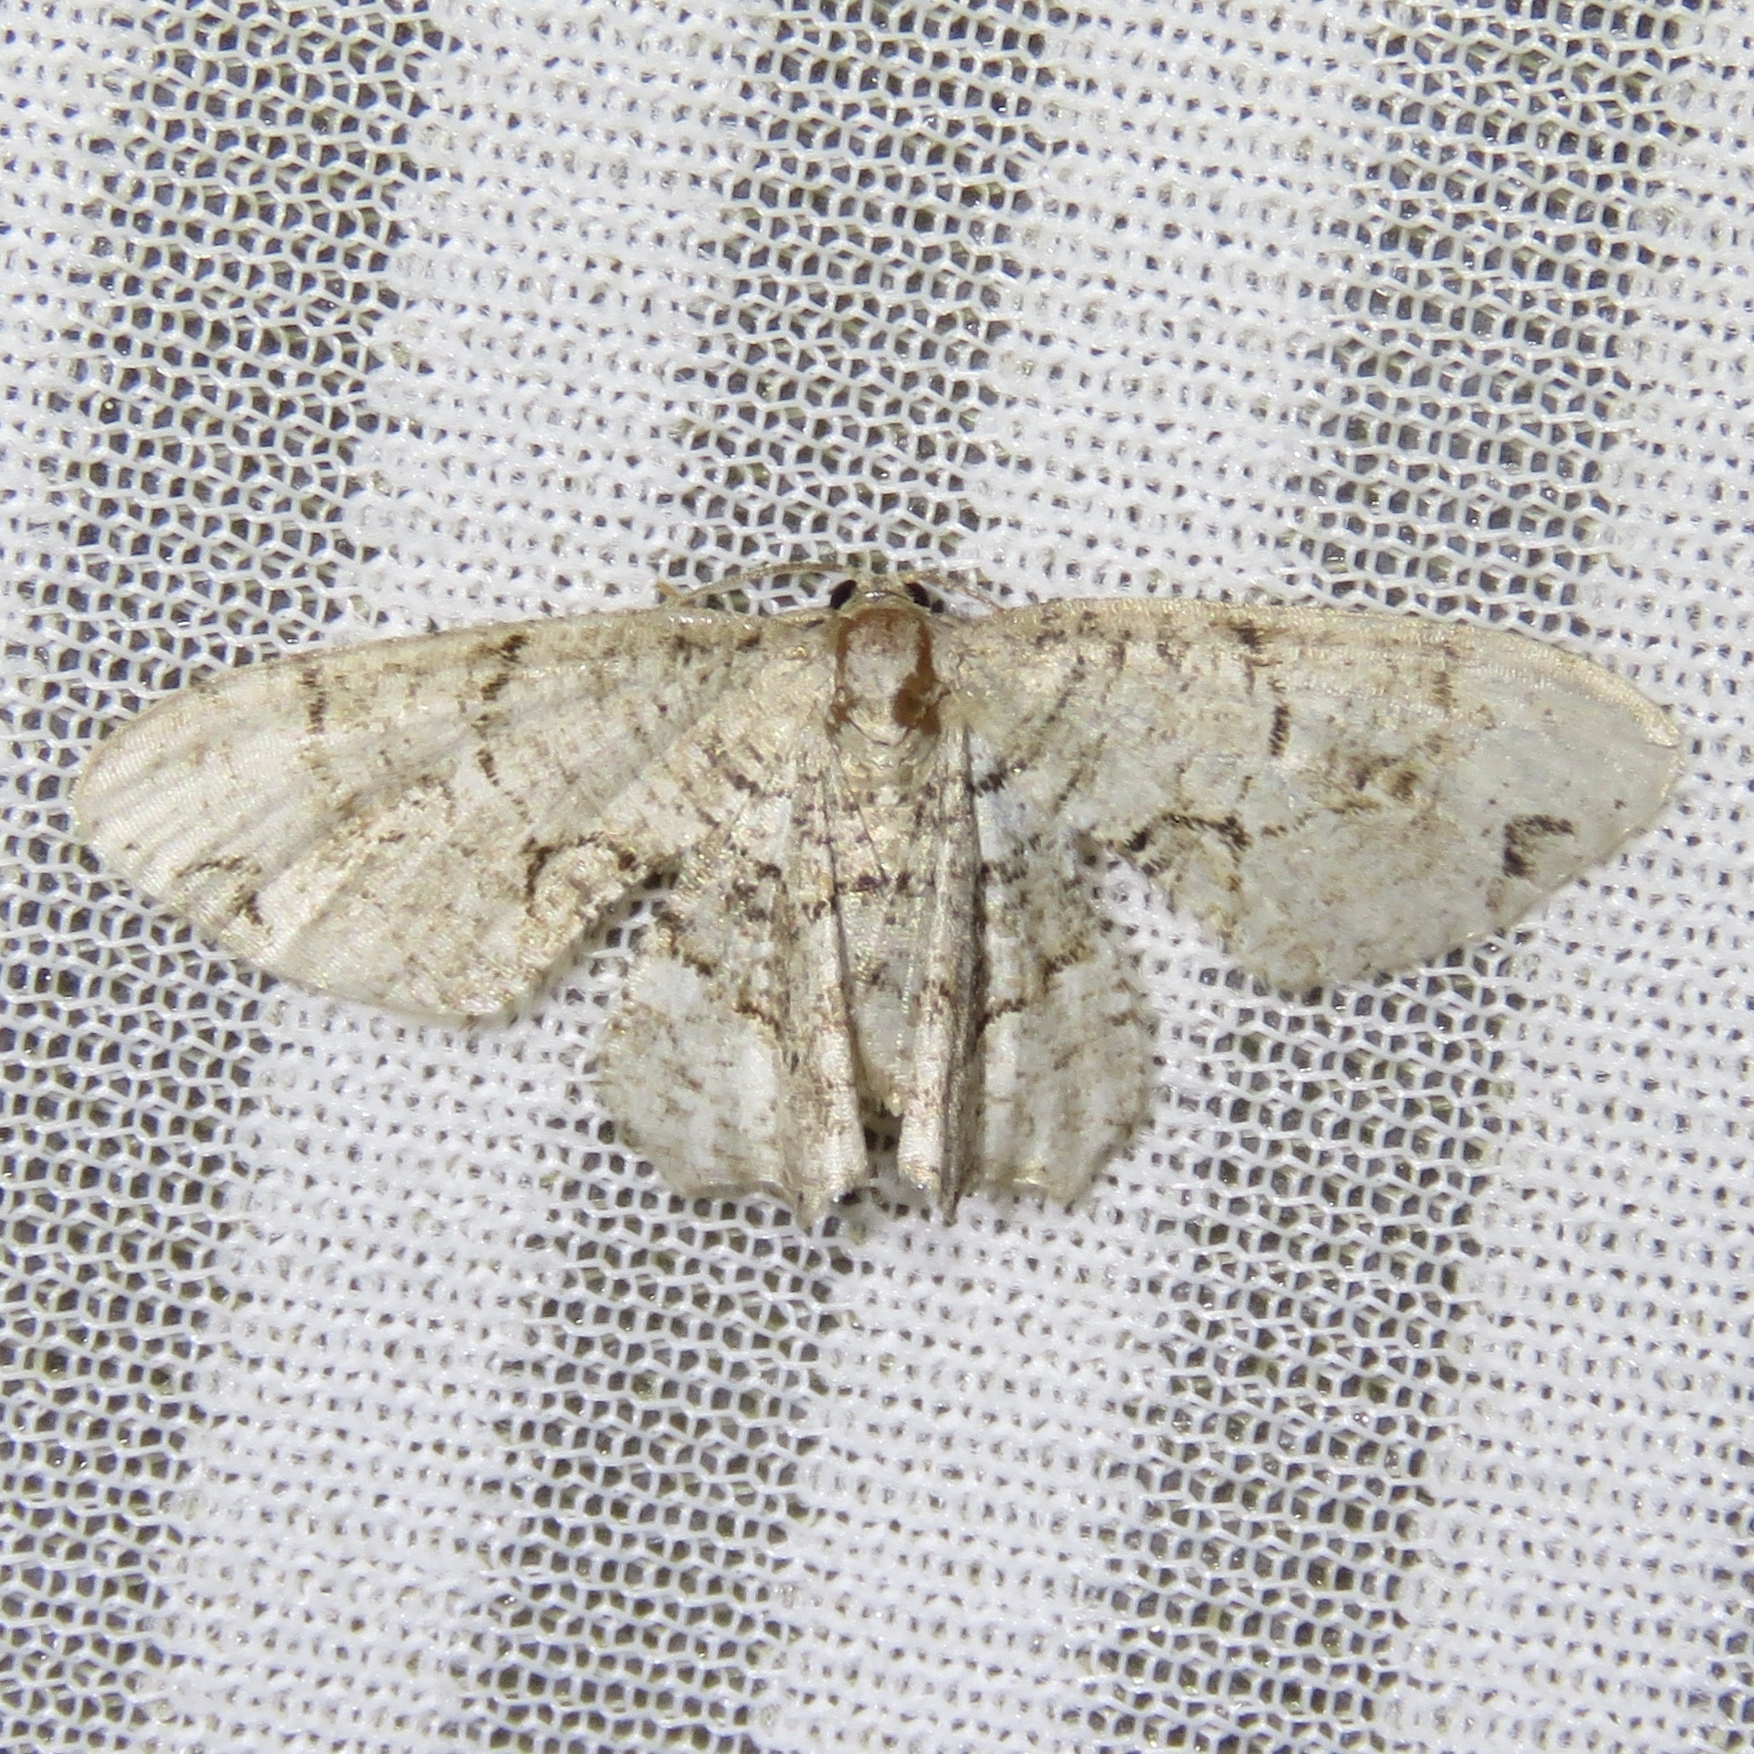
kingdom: Animalia
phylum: Arthropoda
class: Insecta
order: Lepidoptera
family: Uraniidae
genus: Epiplema
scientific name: Epiplema Callizzia amorata
